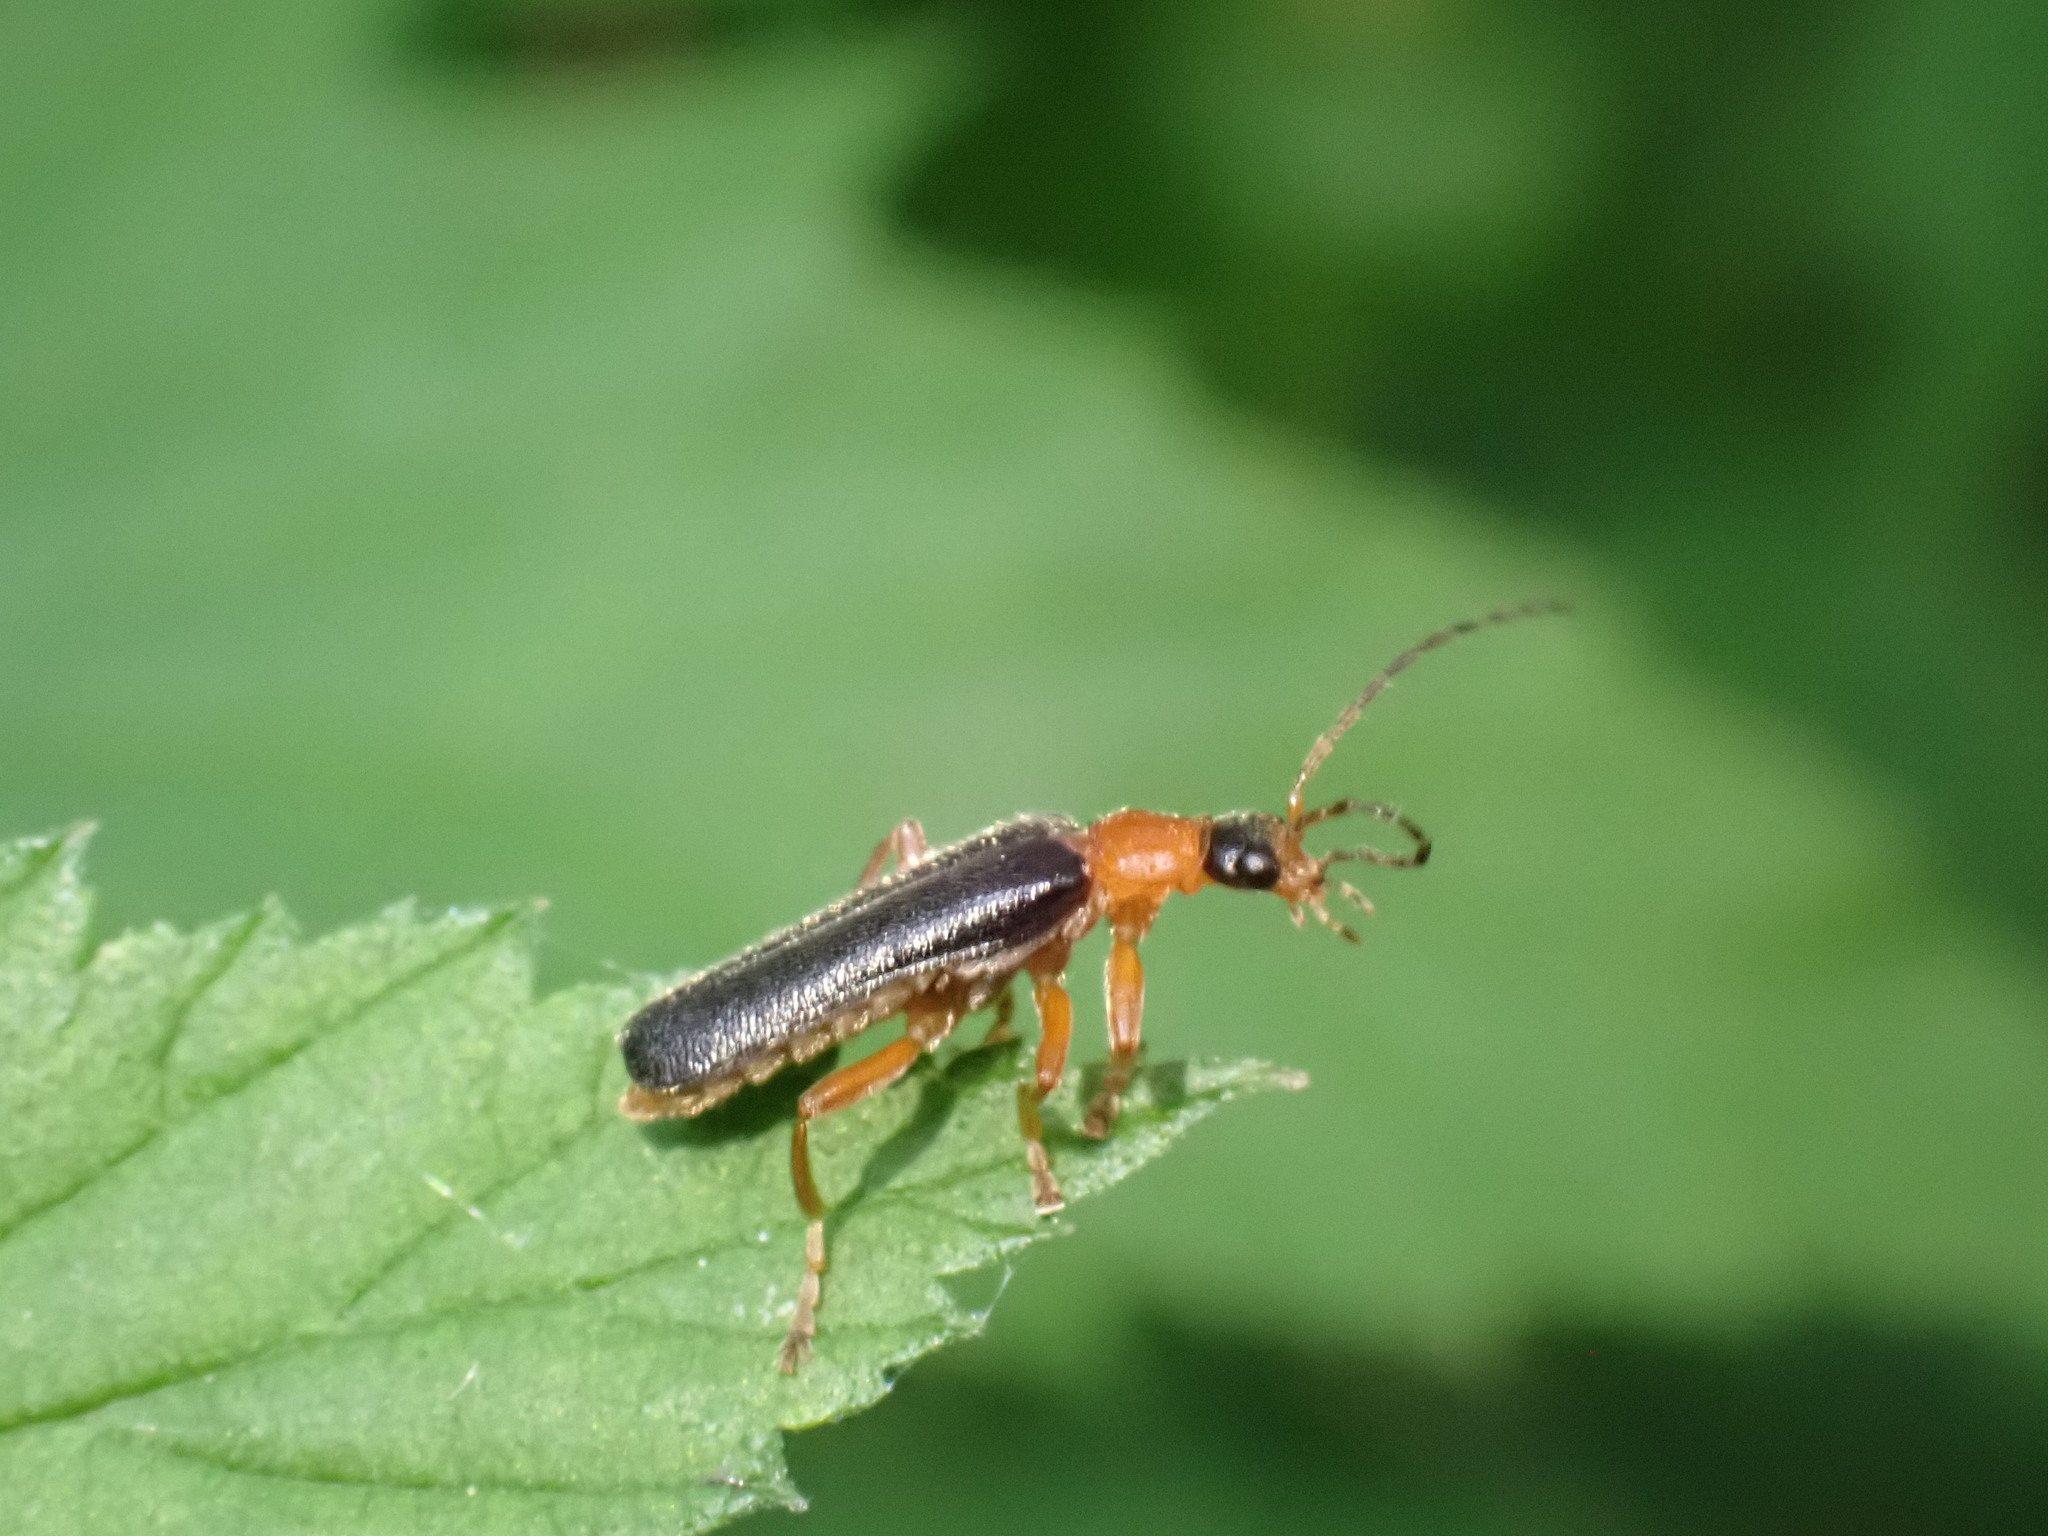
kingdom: Animalia
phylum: Arthropoda
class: Insecta
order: Coleoptera
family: Cantharidae
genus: Cantharis
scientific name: Cantharis nigra
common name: Cantharid beetle
